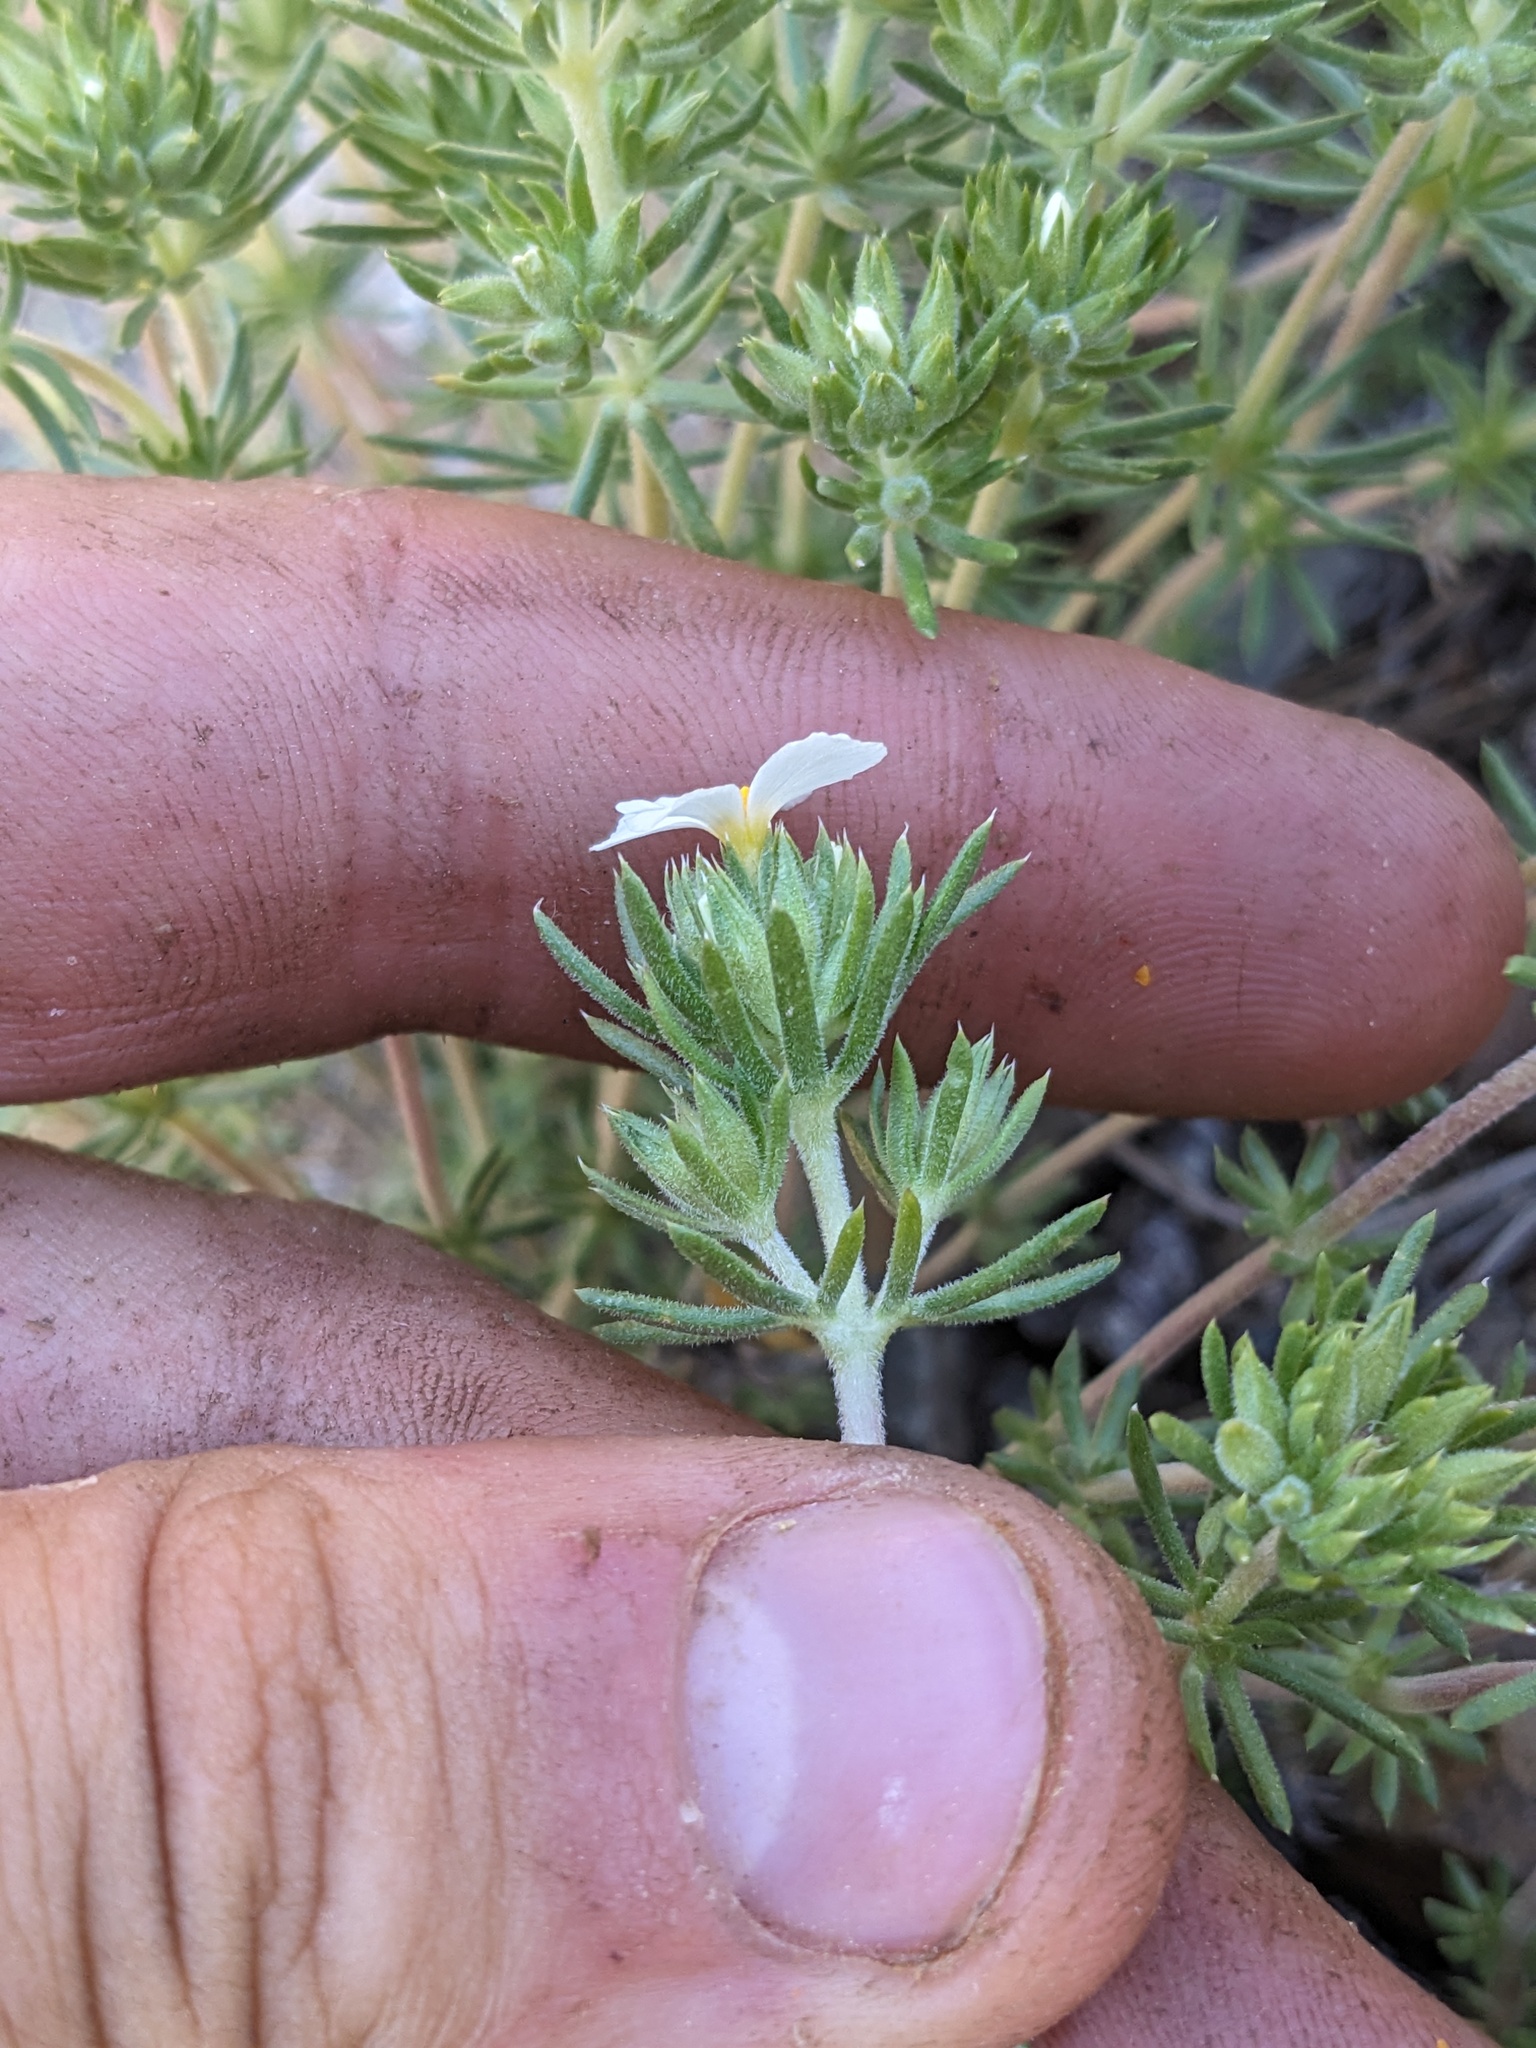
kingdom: Plantae
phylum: Tracheophyta
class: Magnoliopsida
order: Ericales
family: Polemoniaceae
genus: Leptosiphon
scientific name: Leptosiphon nuttallii
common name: Nuttall's linanthus
